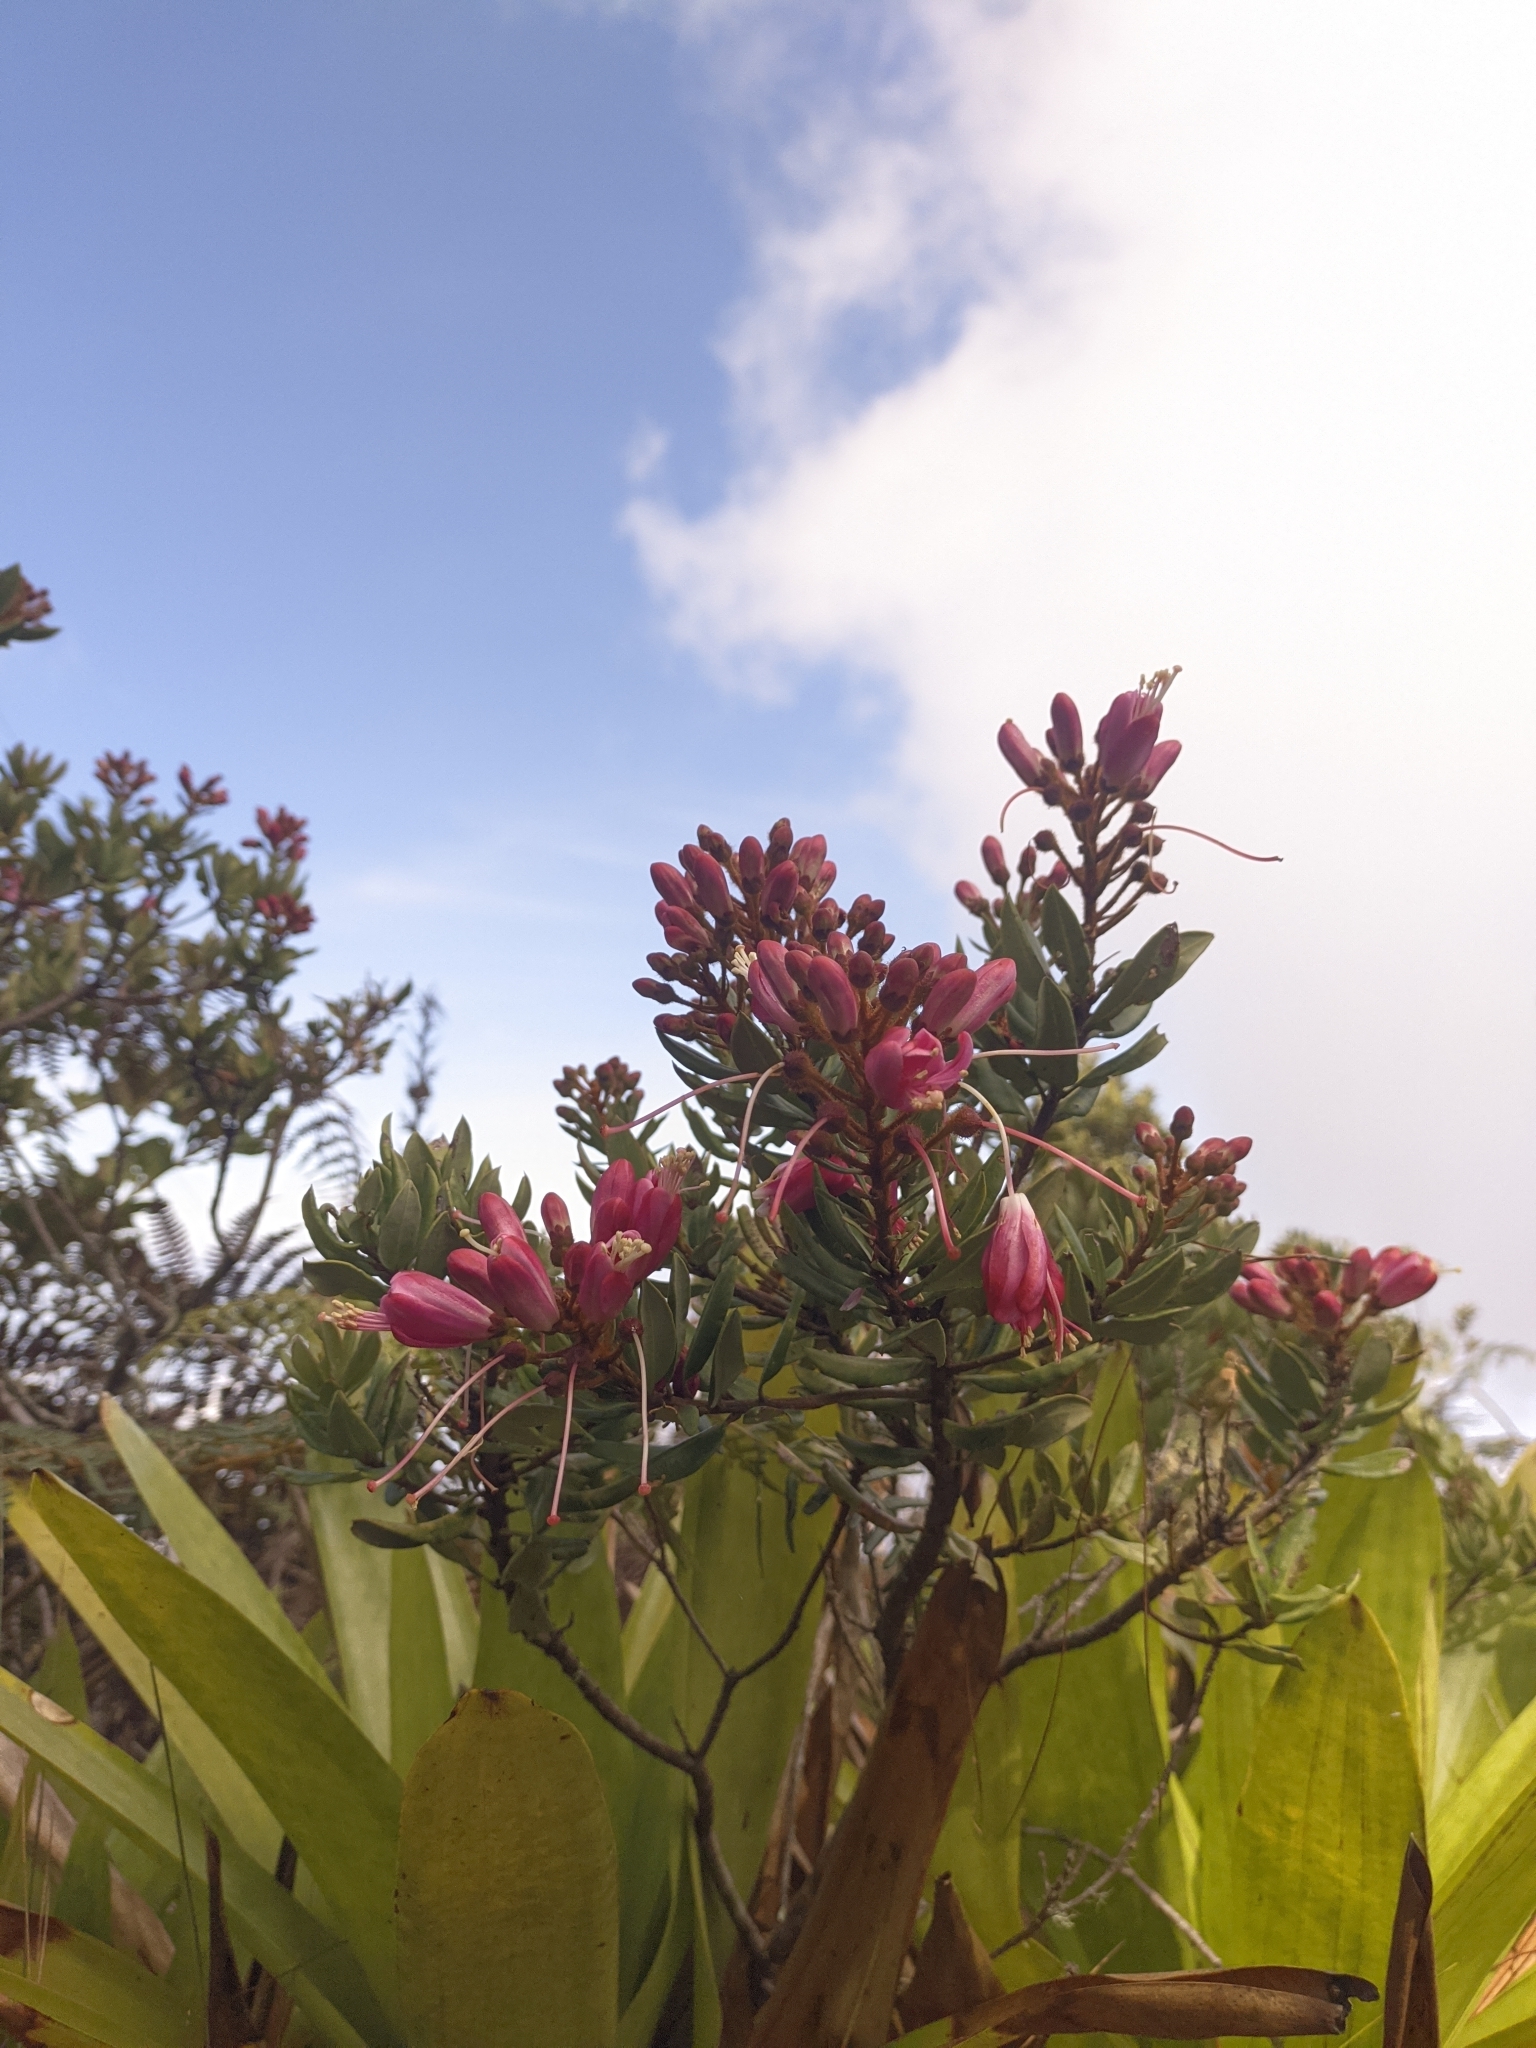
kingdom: Plantae
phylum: Tracheophyta
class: Magnoliopsida
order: Ericales
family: Ericaceae
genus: Bejaria
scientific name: Bejaria mathewsii
